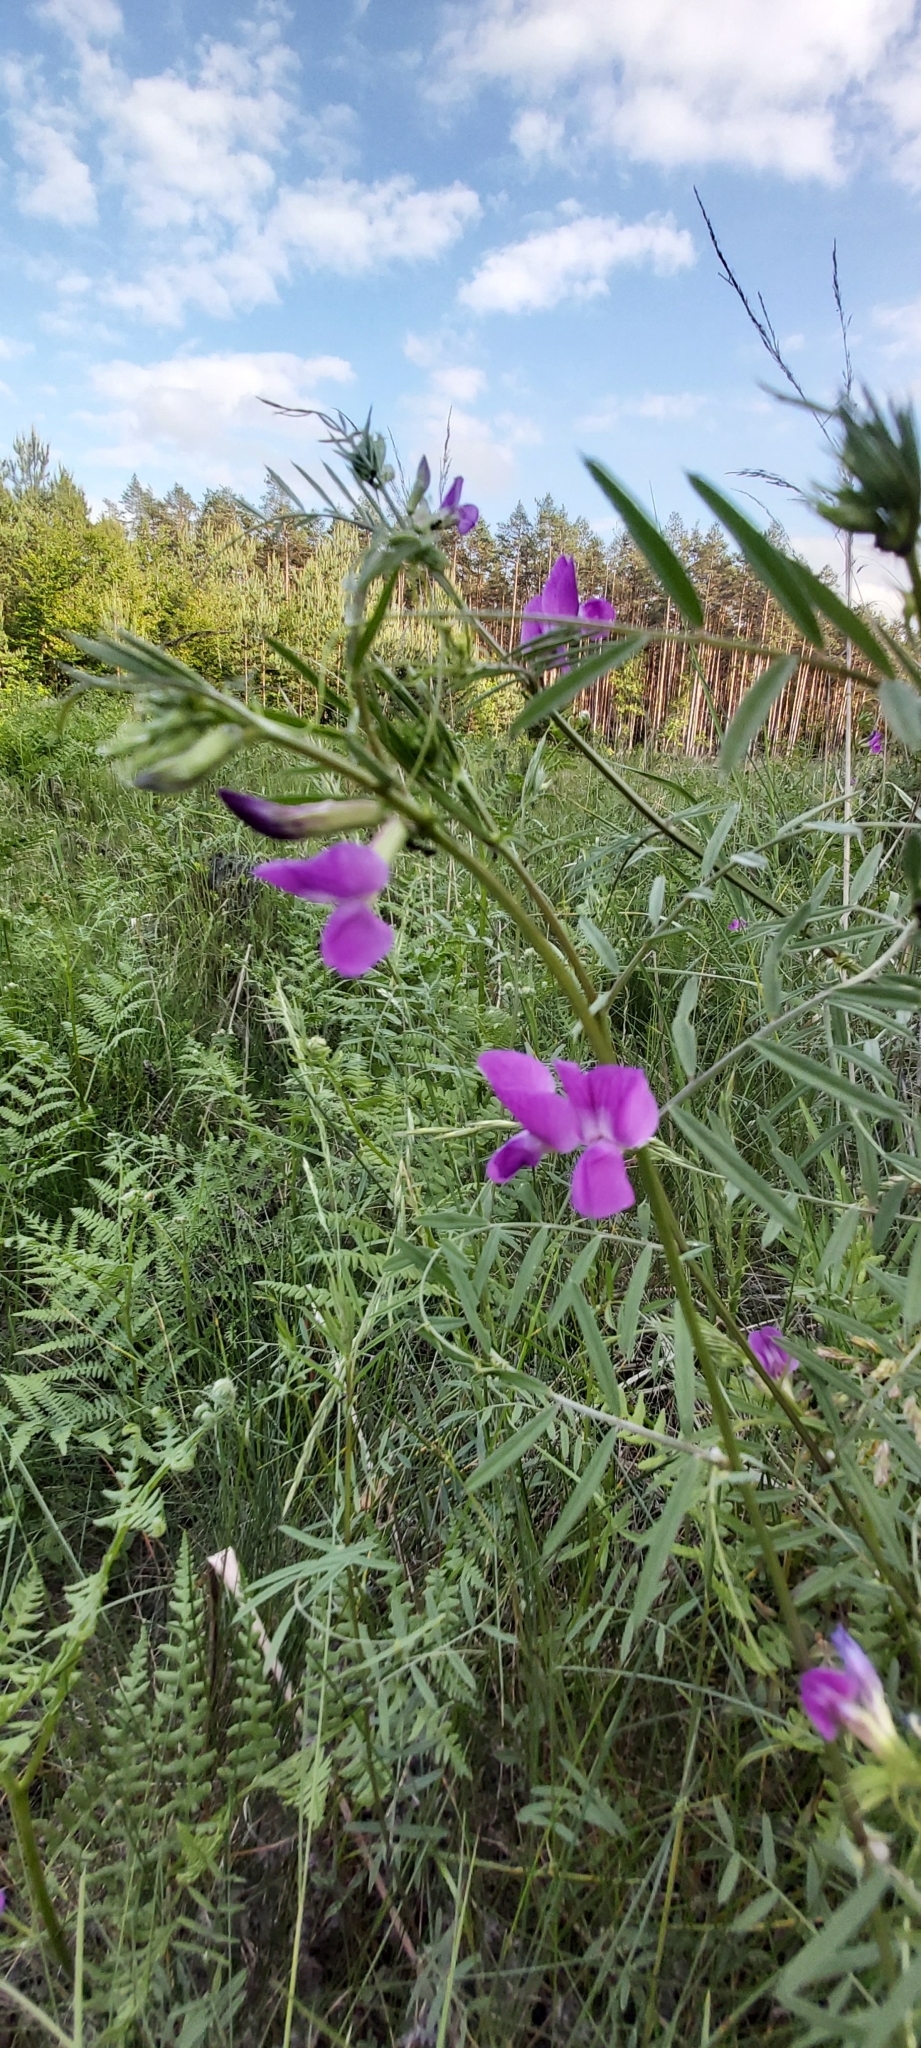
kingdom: Plantae
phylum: Tracheophyta
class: Magnoliopsida
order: Fabales
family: Fabaceae
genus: Vicia
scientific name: Vicia sativa
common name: Garden vetch
